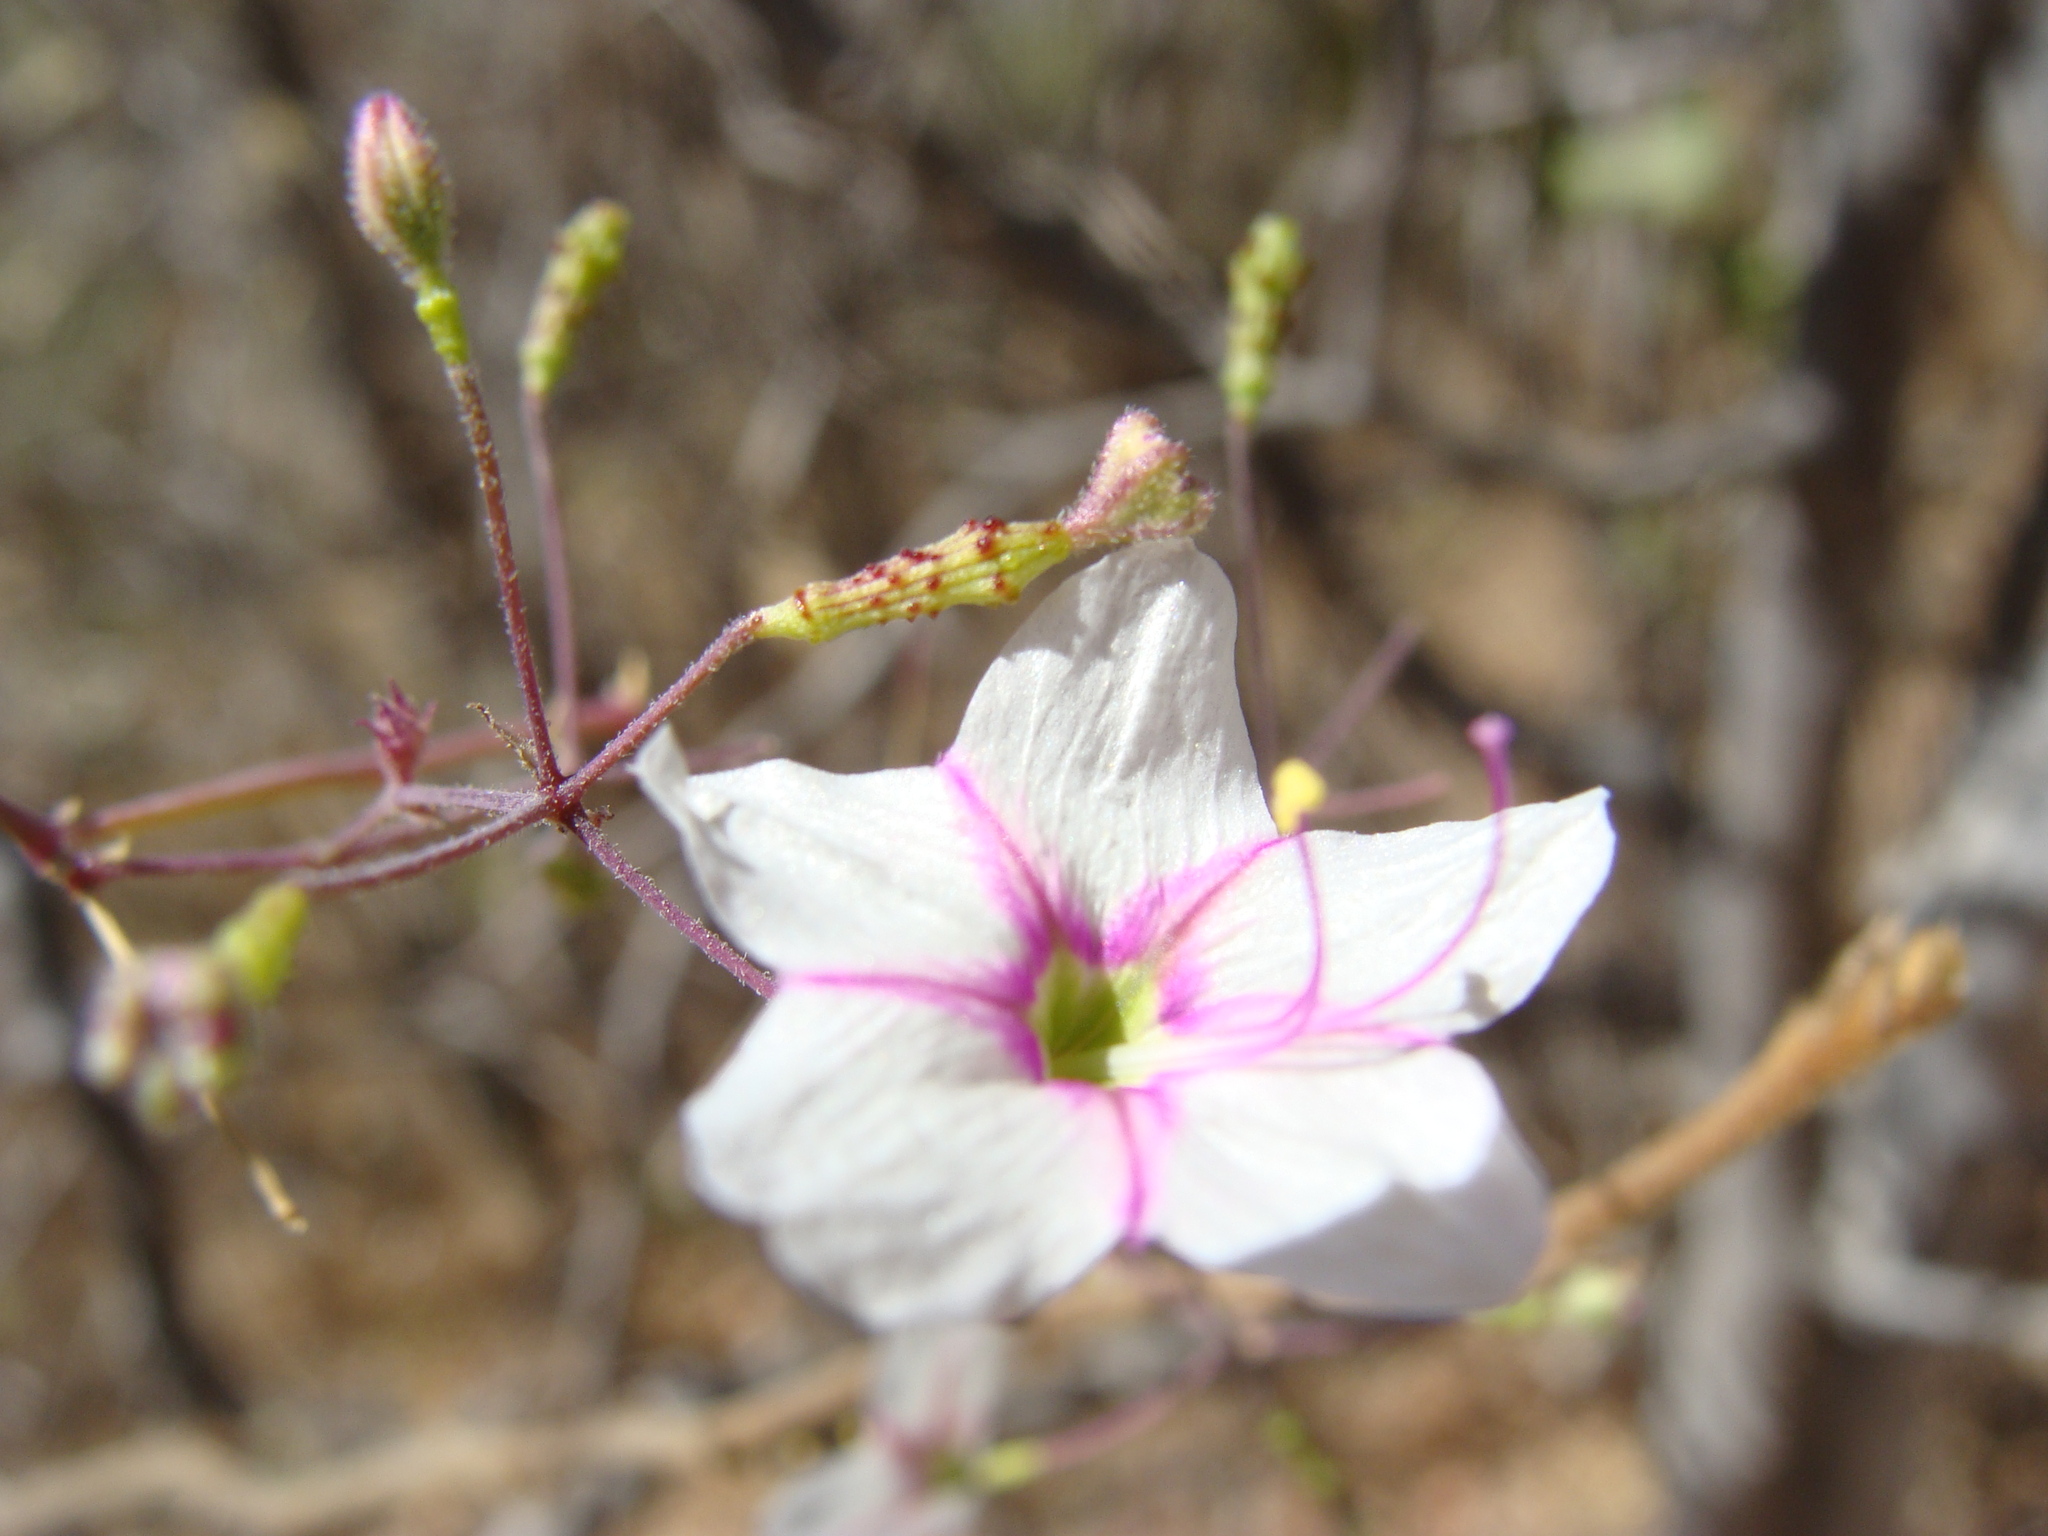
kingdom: Plantae
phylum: Tracheophyta
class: Magnoliopsida
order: Caryophyllales
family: Nyctaginaceae
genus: Commicarpus
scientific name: Commicarpus brandegeei
